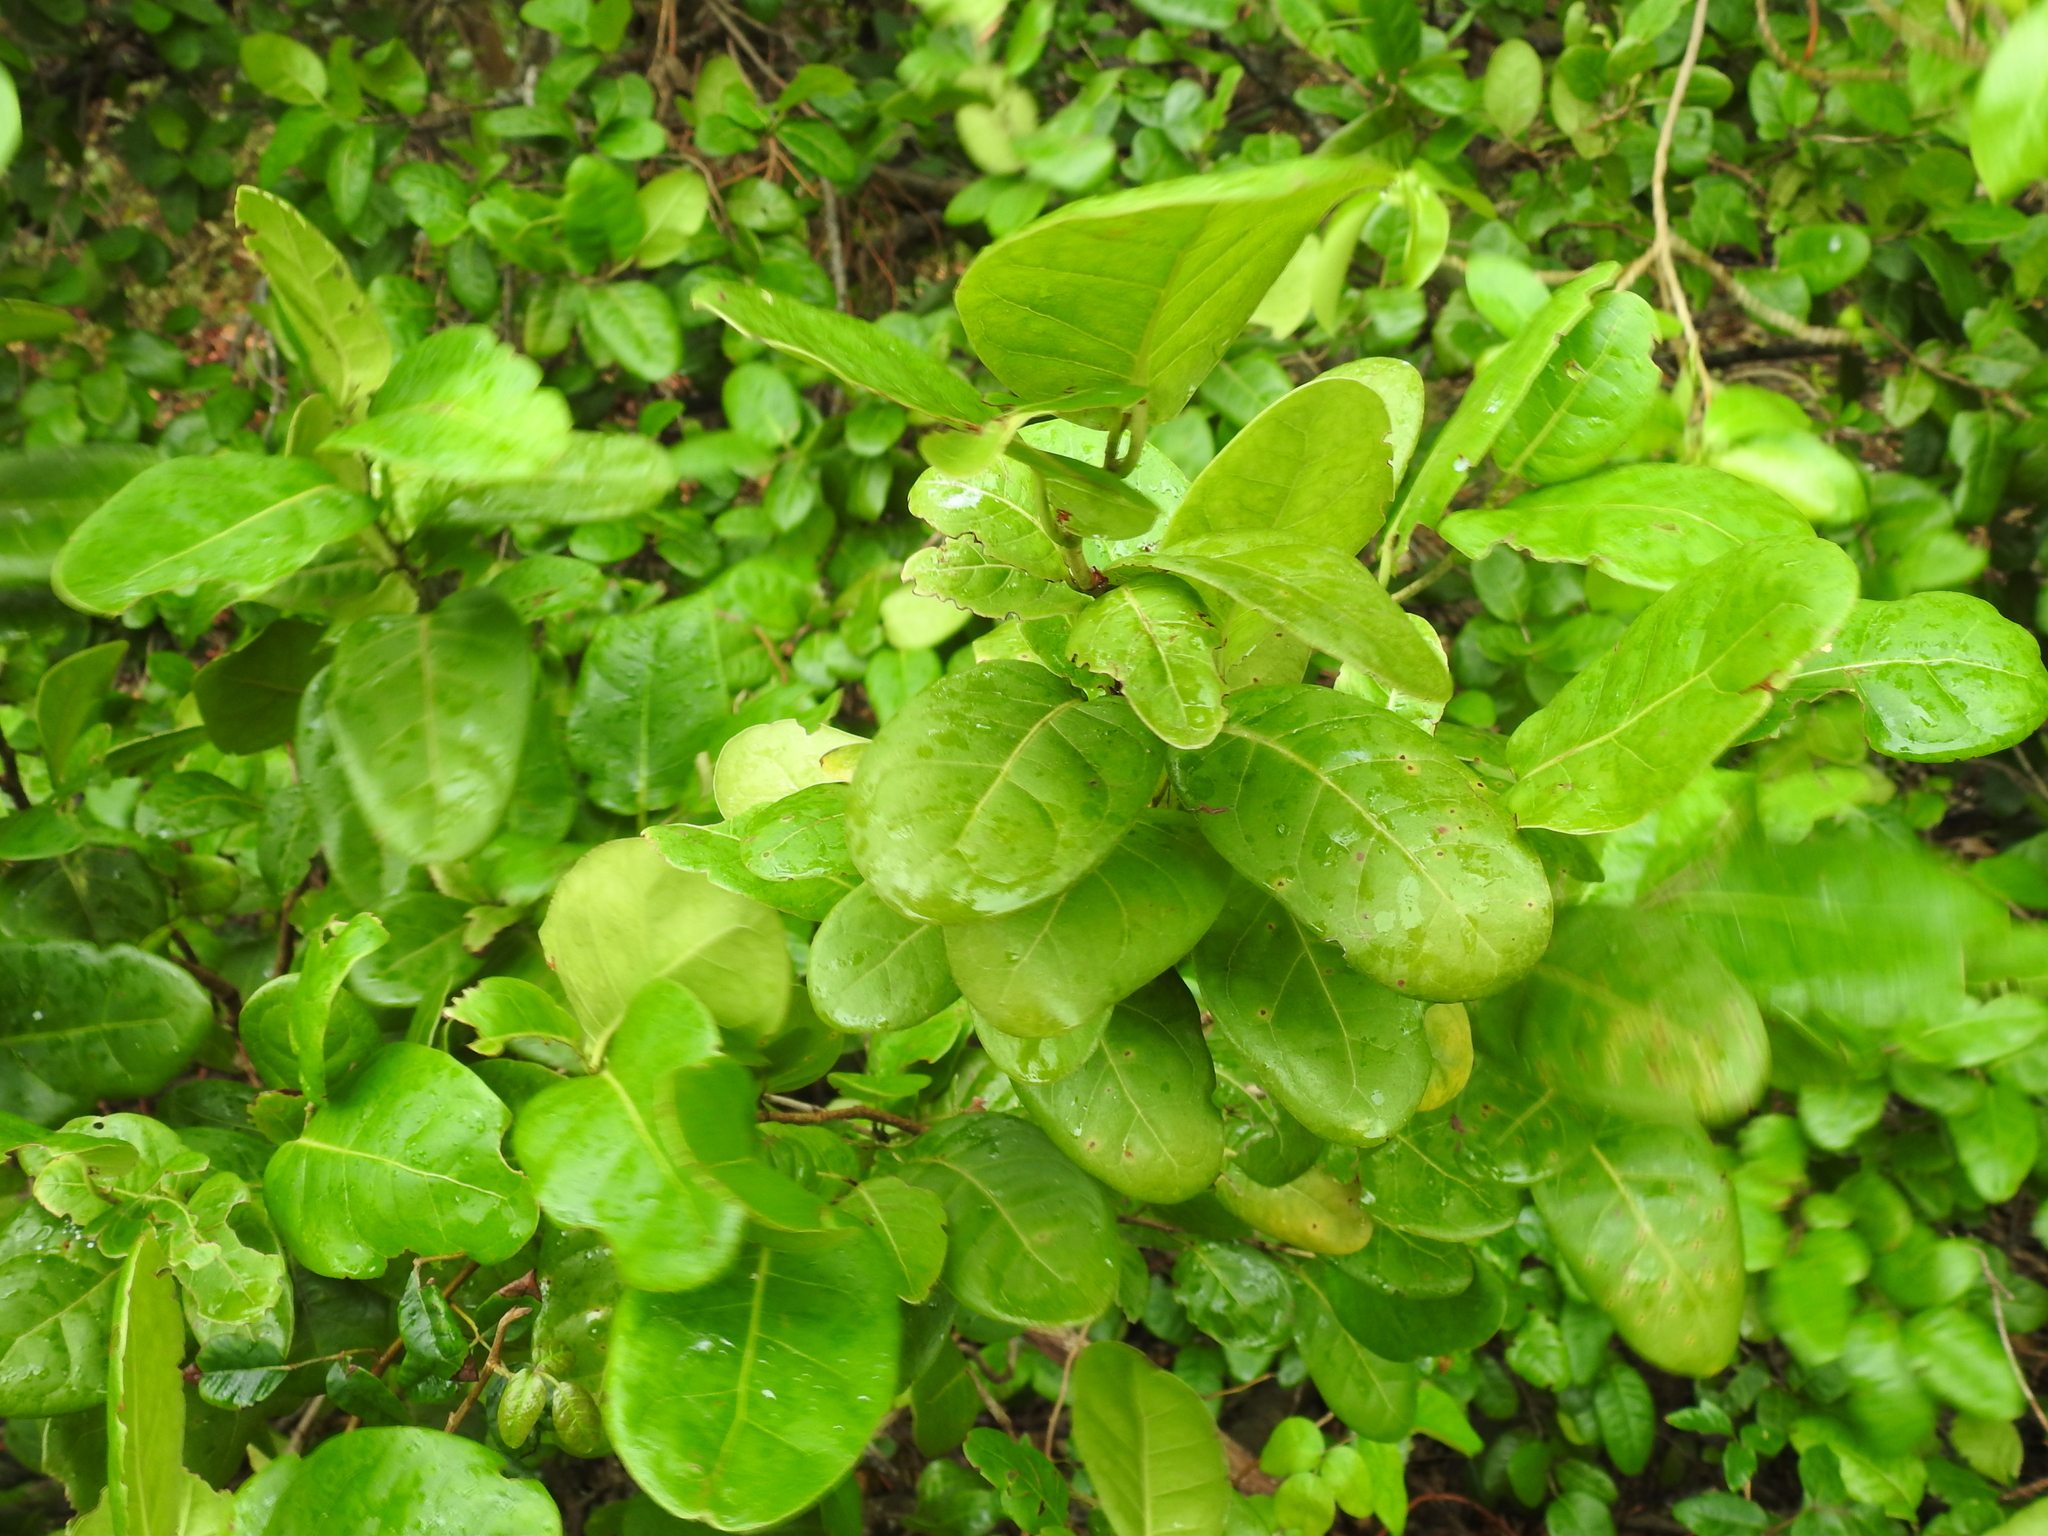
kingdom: Plantae
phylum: Tracheophyta
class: Magnoliopsida
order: Caryophyllales
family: Polygonaceae
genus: Coccoloba
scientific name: Coccoloba diversifolia
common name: Pigeon-plum
